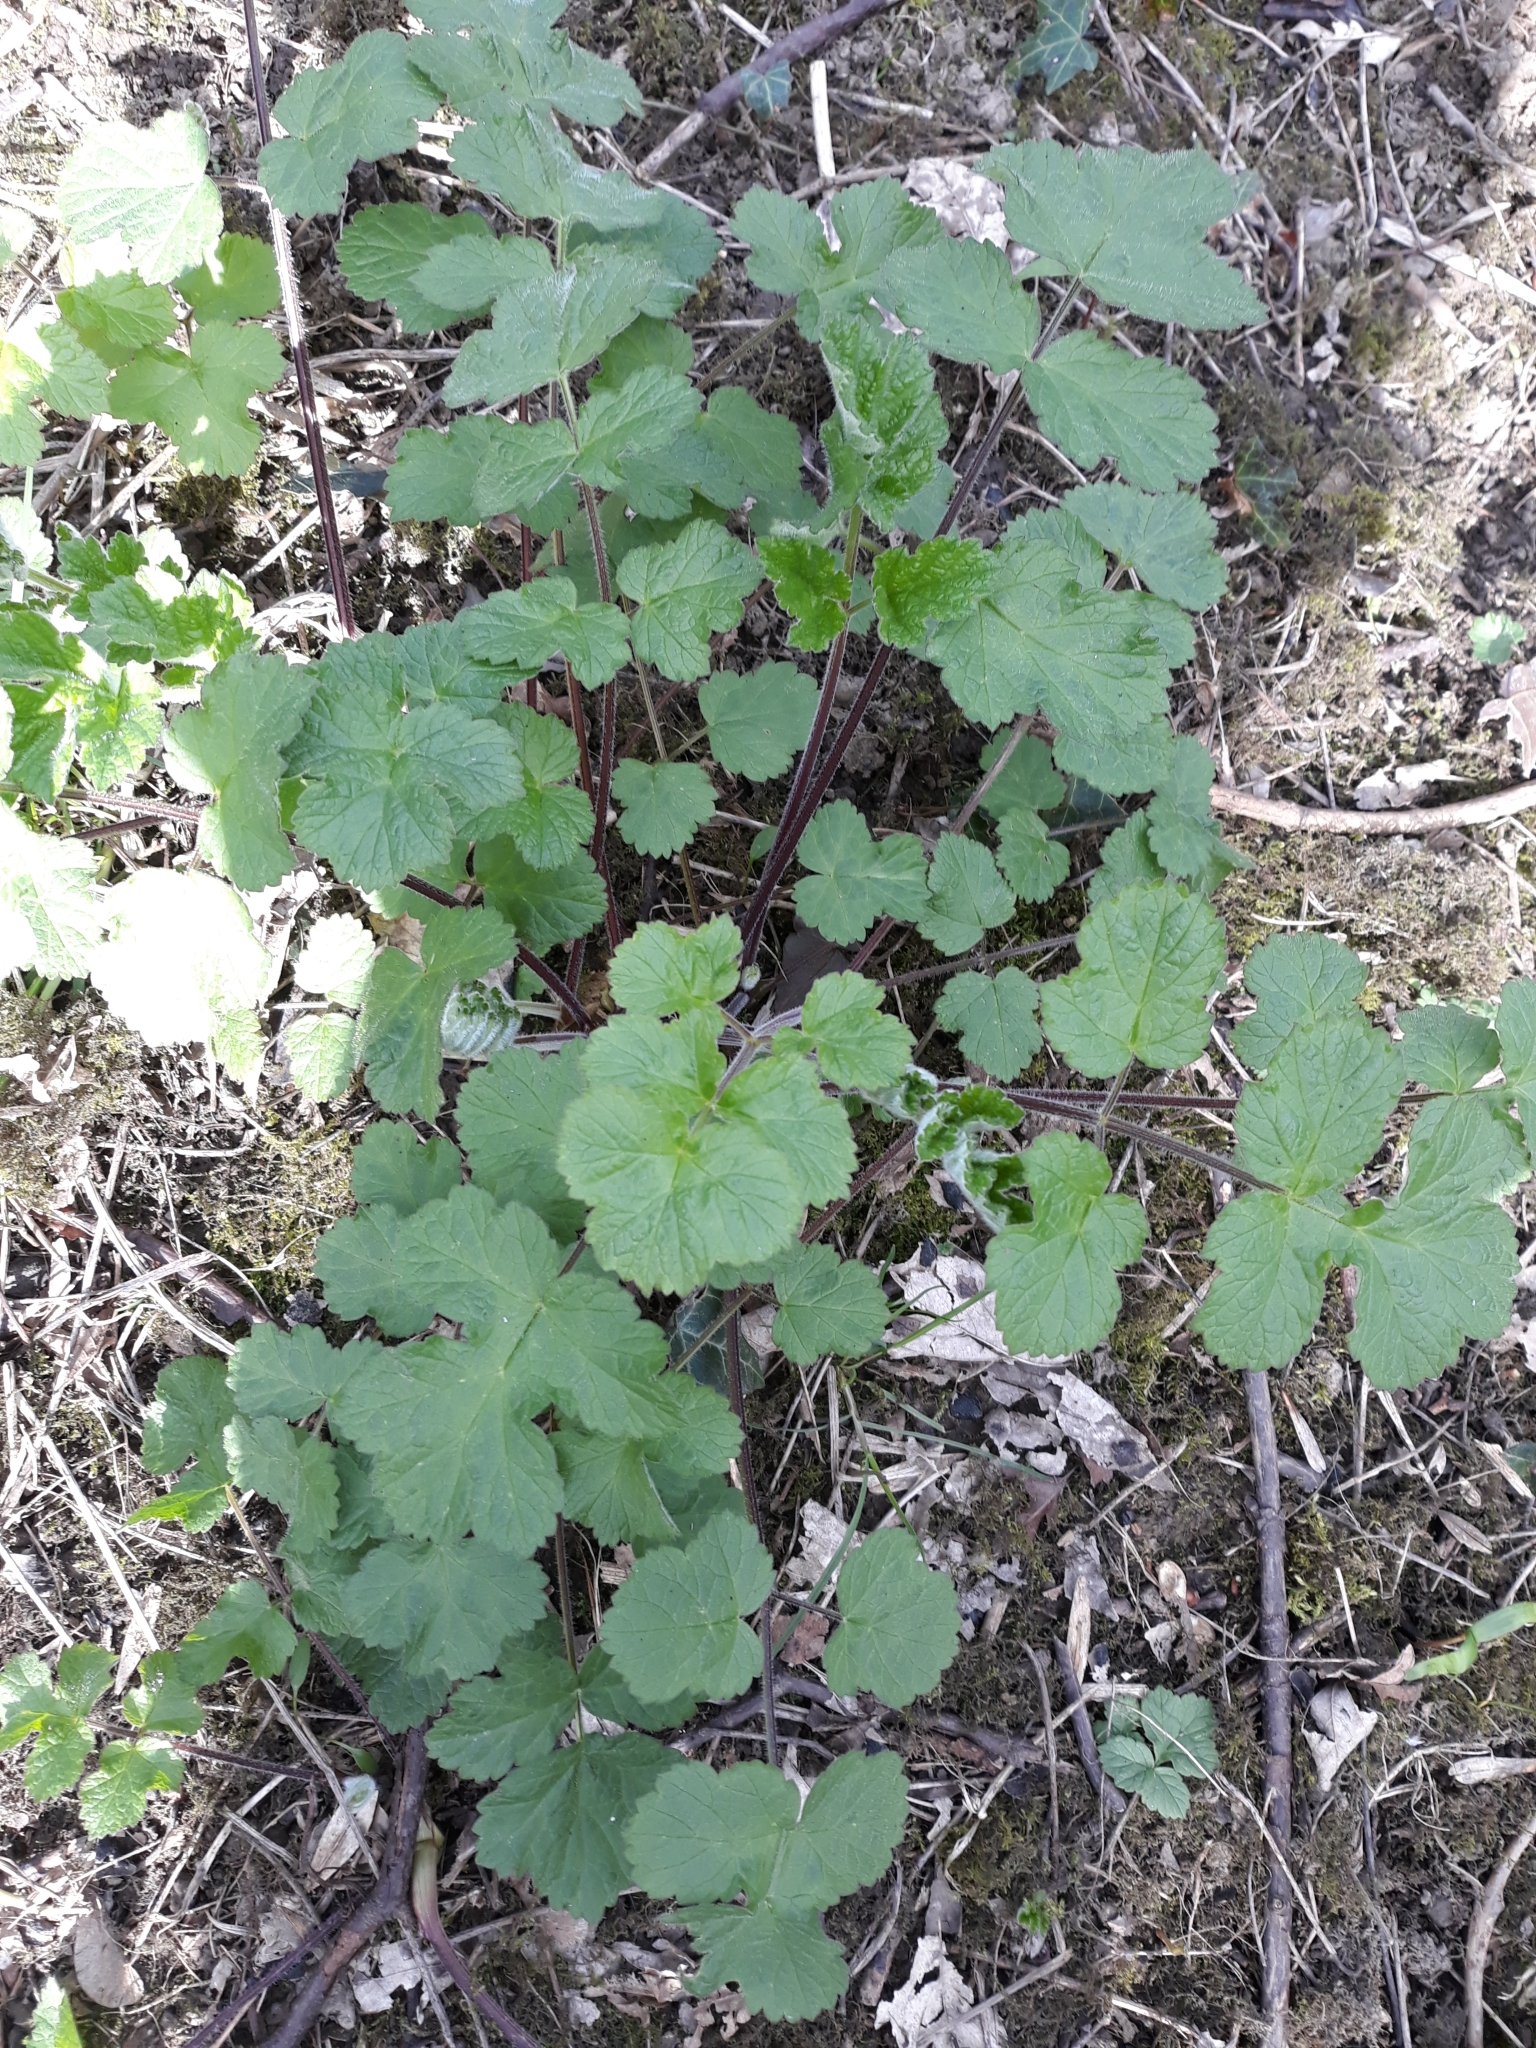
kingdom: Plantae
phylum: Tracheophyta
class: Magnoliopsida
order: Apiales
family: Apiaceae
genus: Heracleum
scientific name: Heracleum sphondylium
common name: Hogweed
